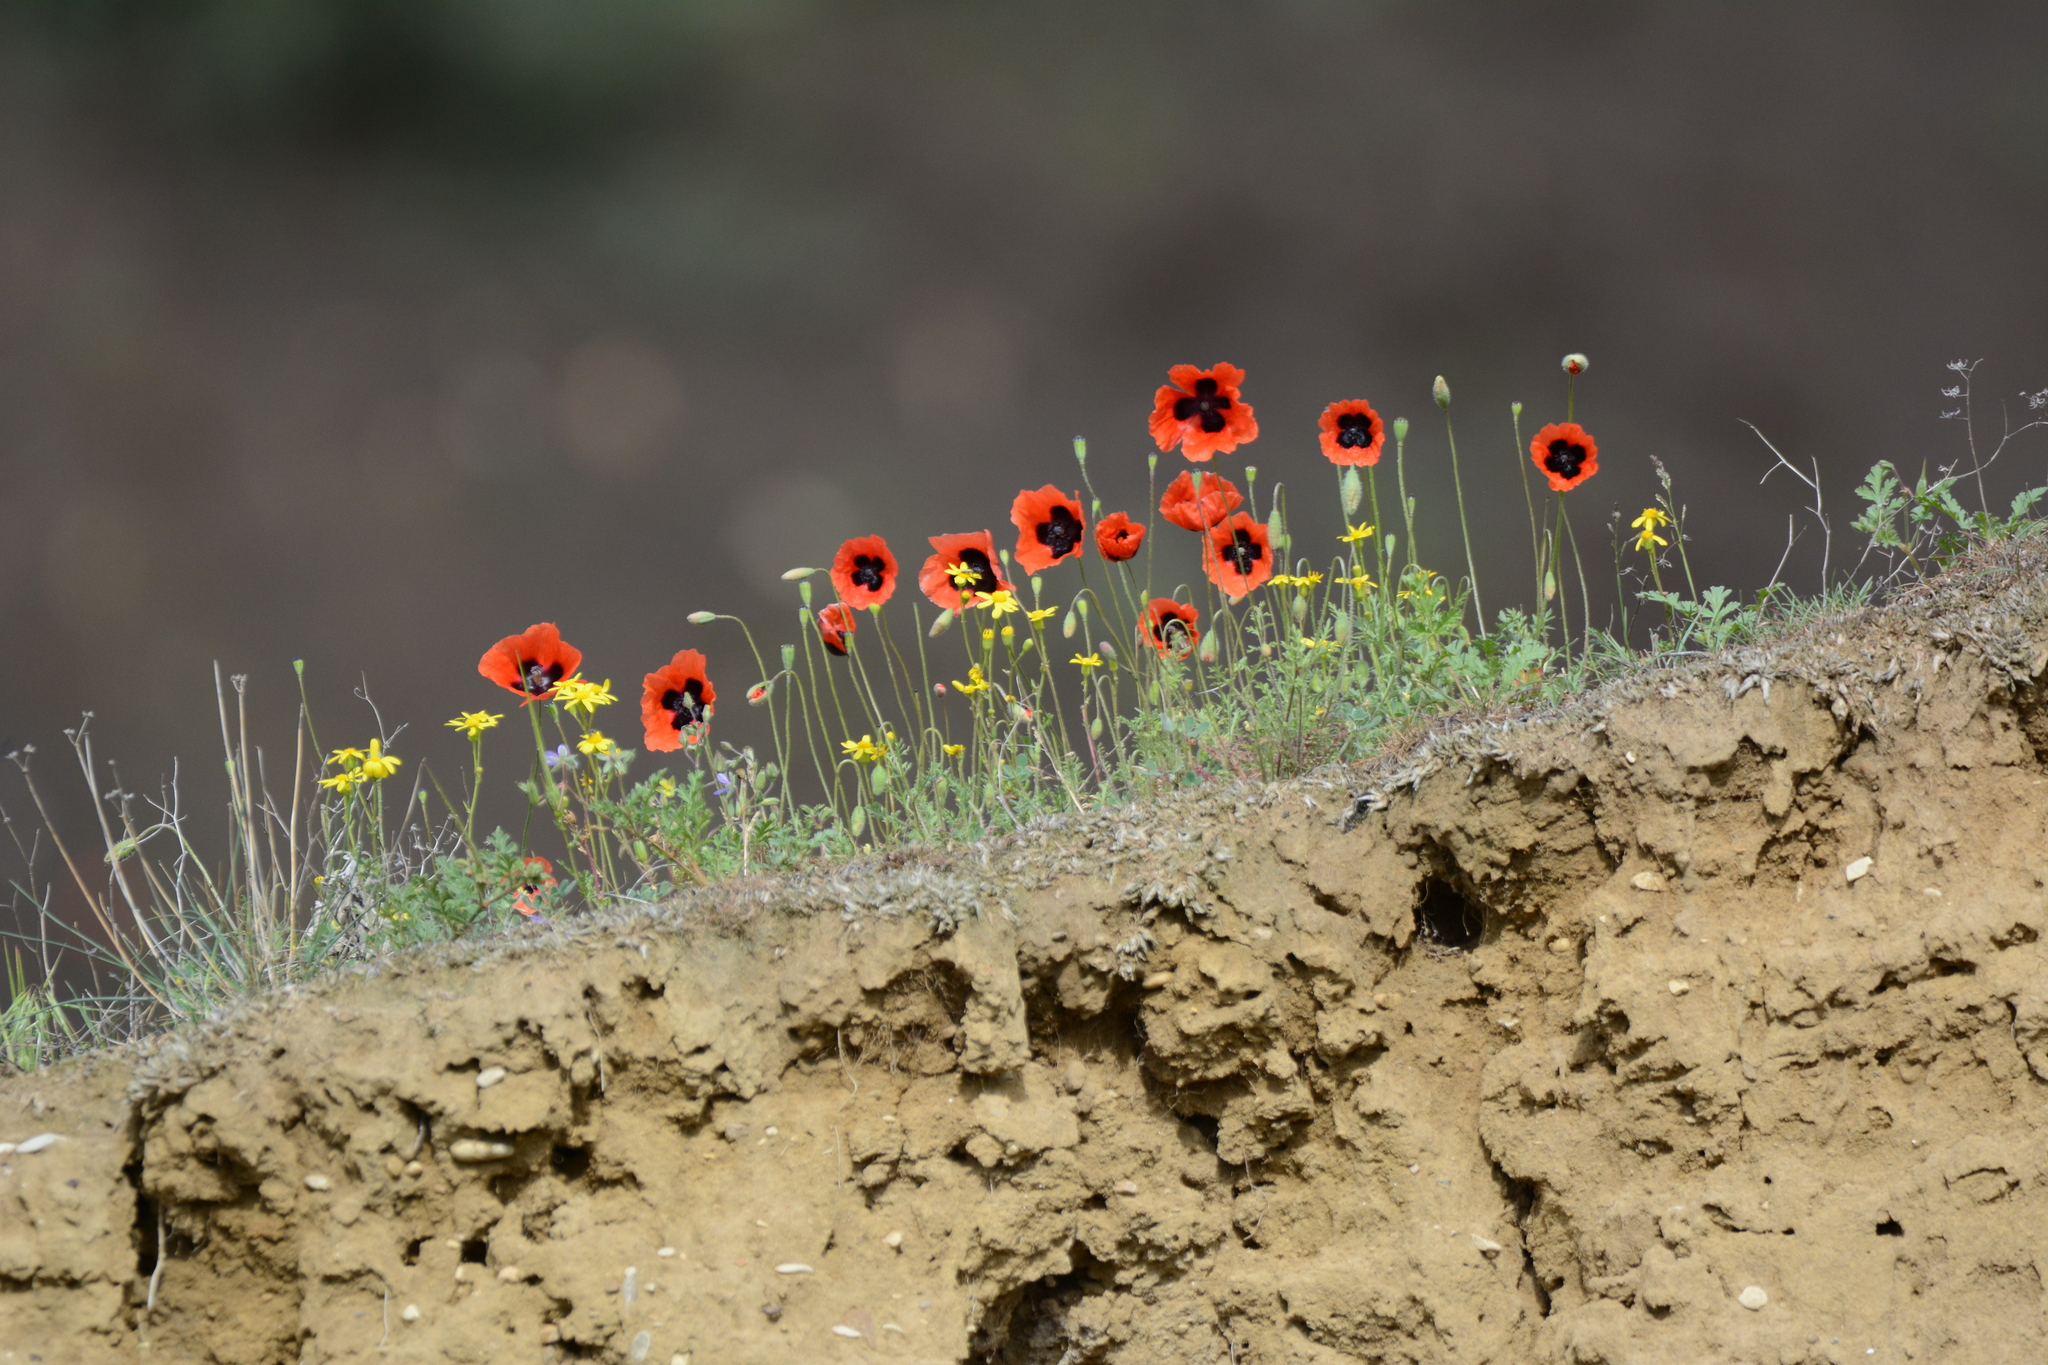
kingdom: Plantae
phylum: Tracheophyta
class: Magnoliopsida
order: Ranunculales
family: Papaveraceae
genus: Papaver
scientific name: Papaver arenarium
